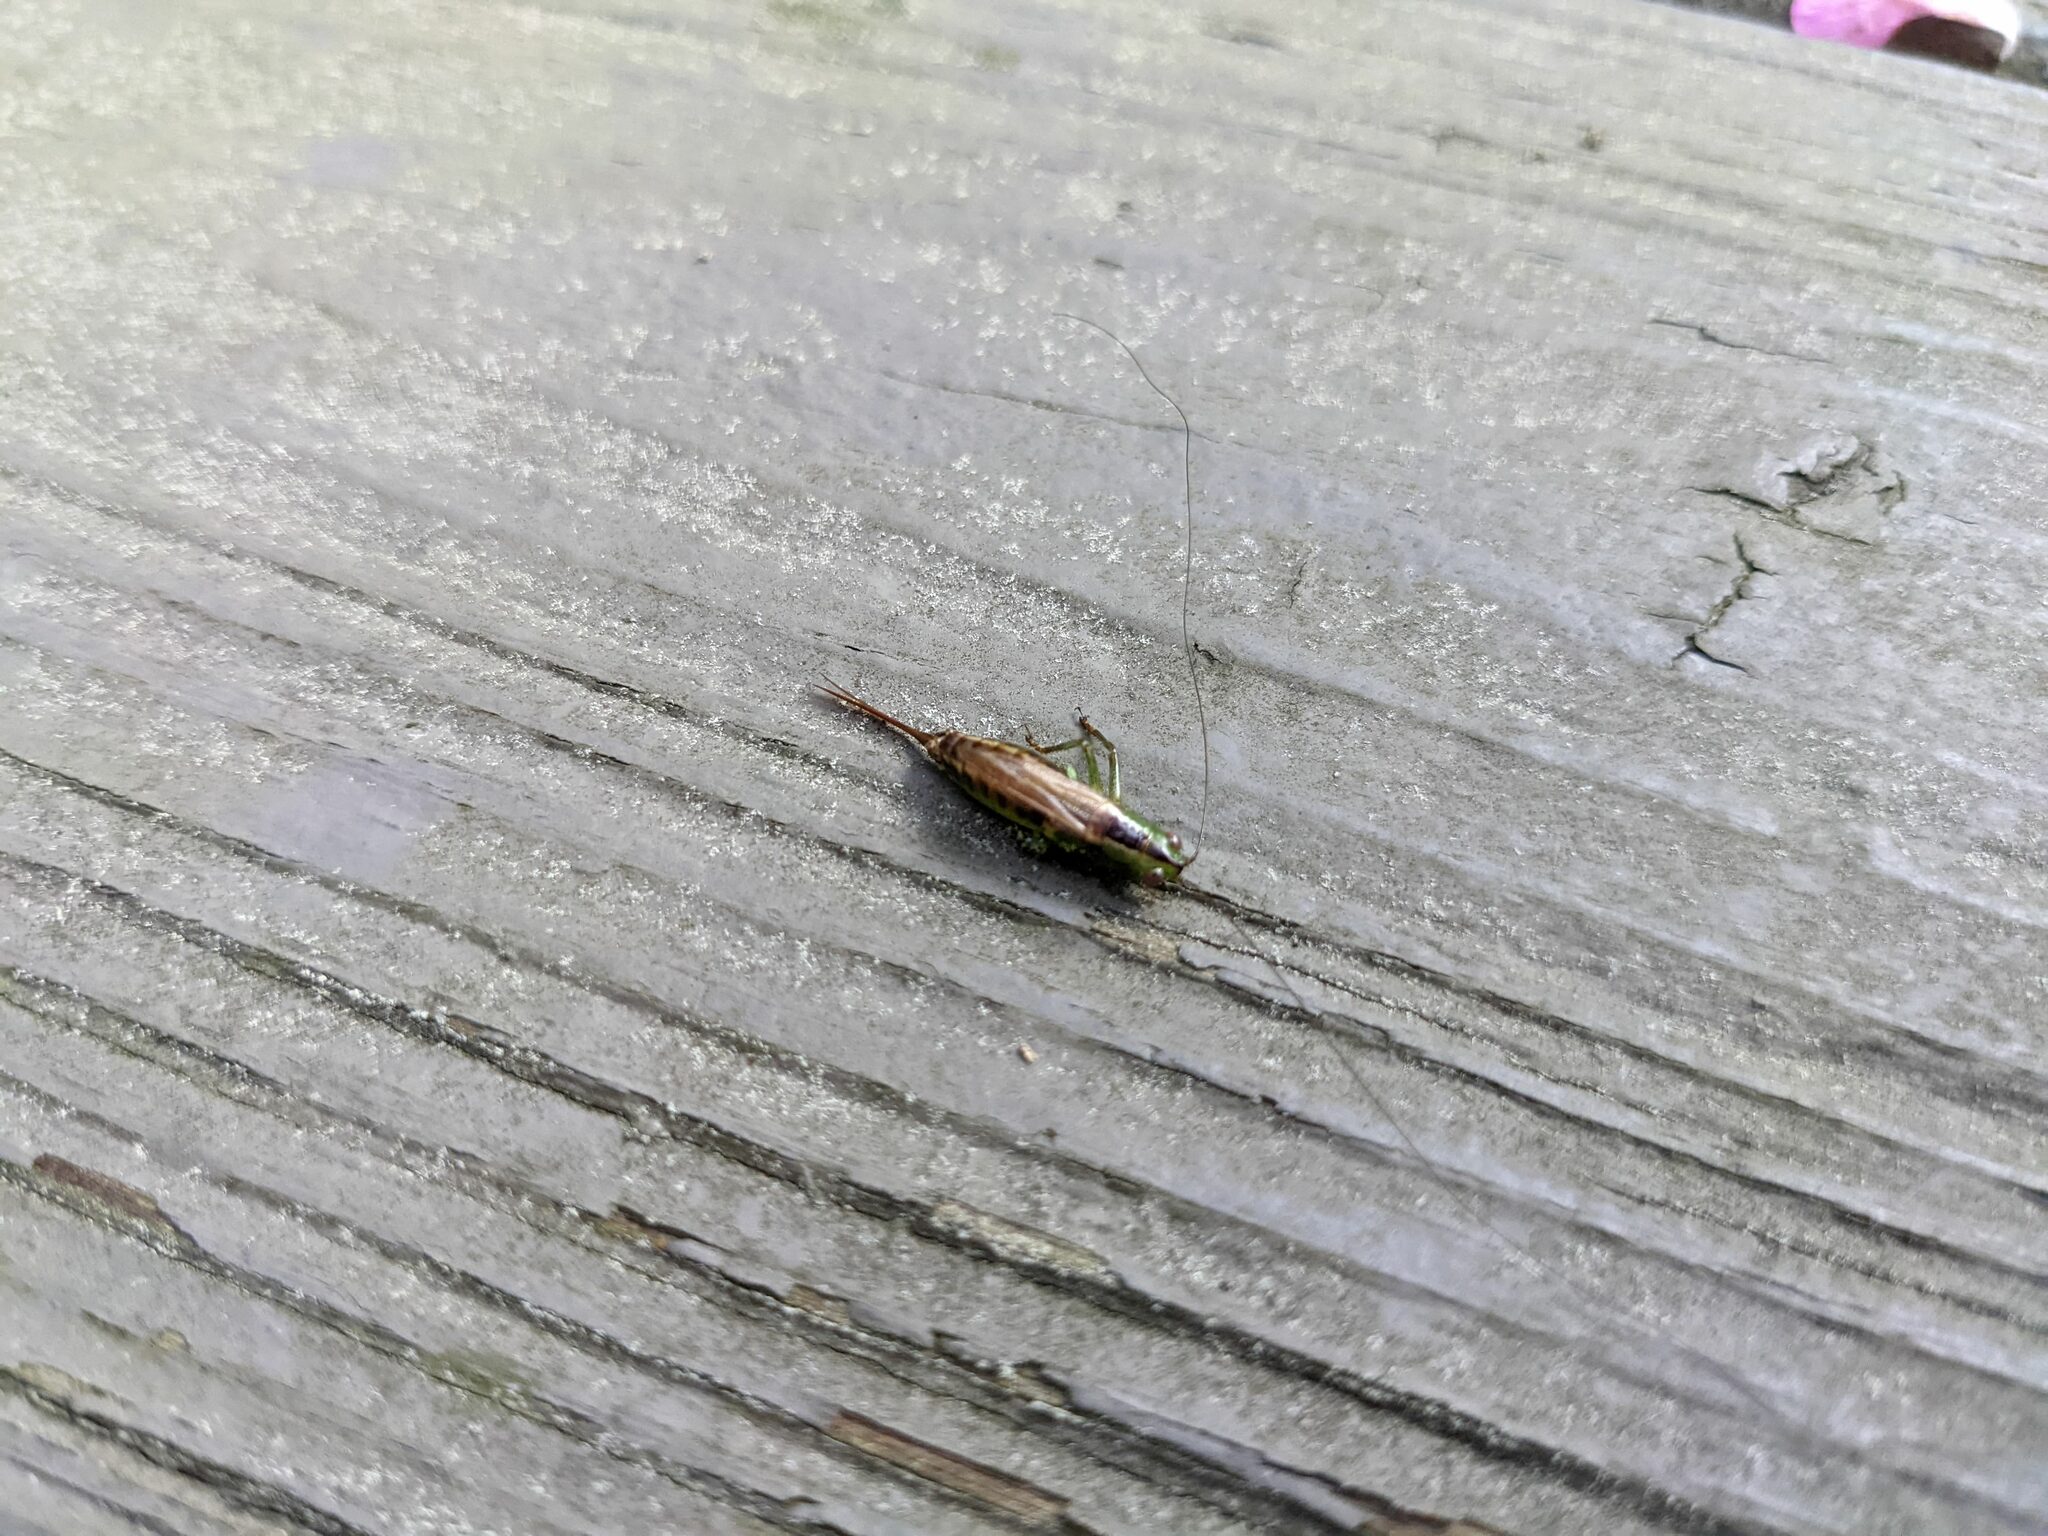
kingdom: Animalia
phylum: Arthropoda
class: Insecta
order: Orthoptera
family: Tettigoniidae
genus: Conocephalus
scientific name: Conocephalus brevipennis
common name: Short-winged meadow katydid
